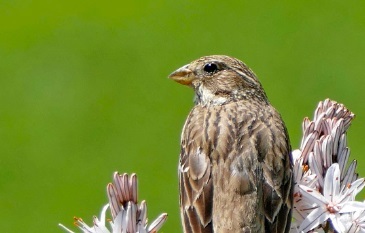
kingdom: Animalia
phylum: Chordata
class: Aves
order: Passeriformes
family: Emberizidae
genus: Emberiza
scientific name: Emberiza calandra
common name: Corn bunting
